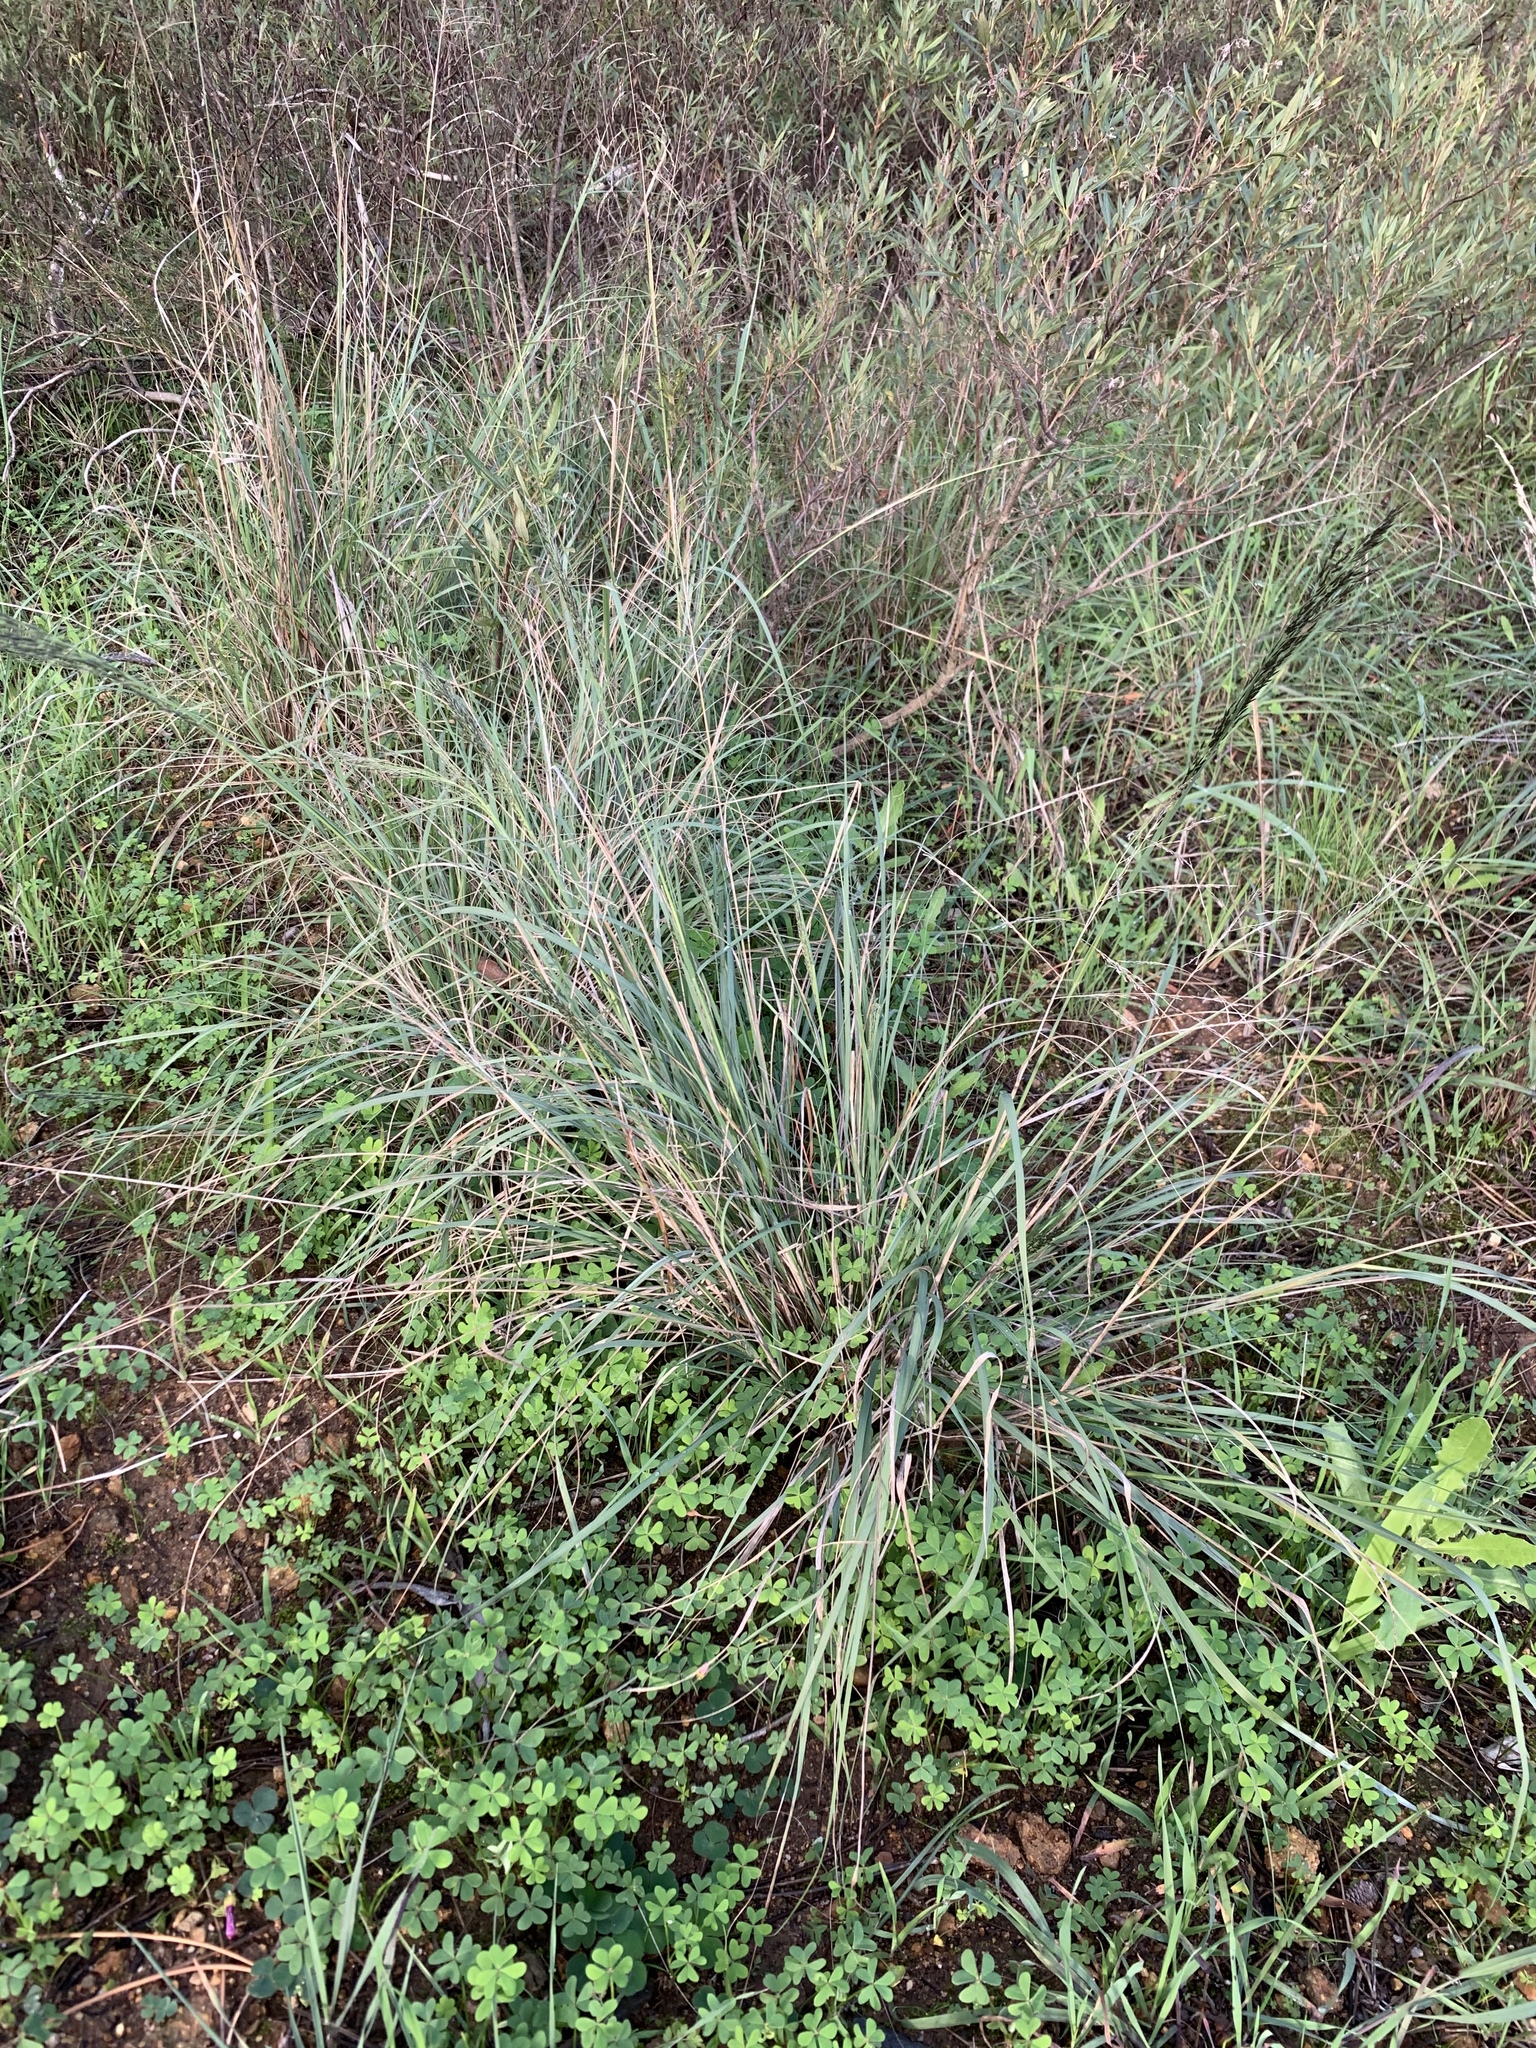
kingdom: Plantae
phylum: Tracheophyta
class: Liliopsida
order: Poales
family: Poaceae
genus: Eragrostis
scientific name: Eragrostis curvula
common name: African love-grass
